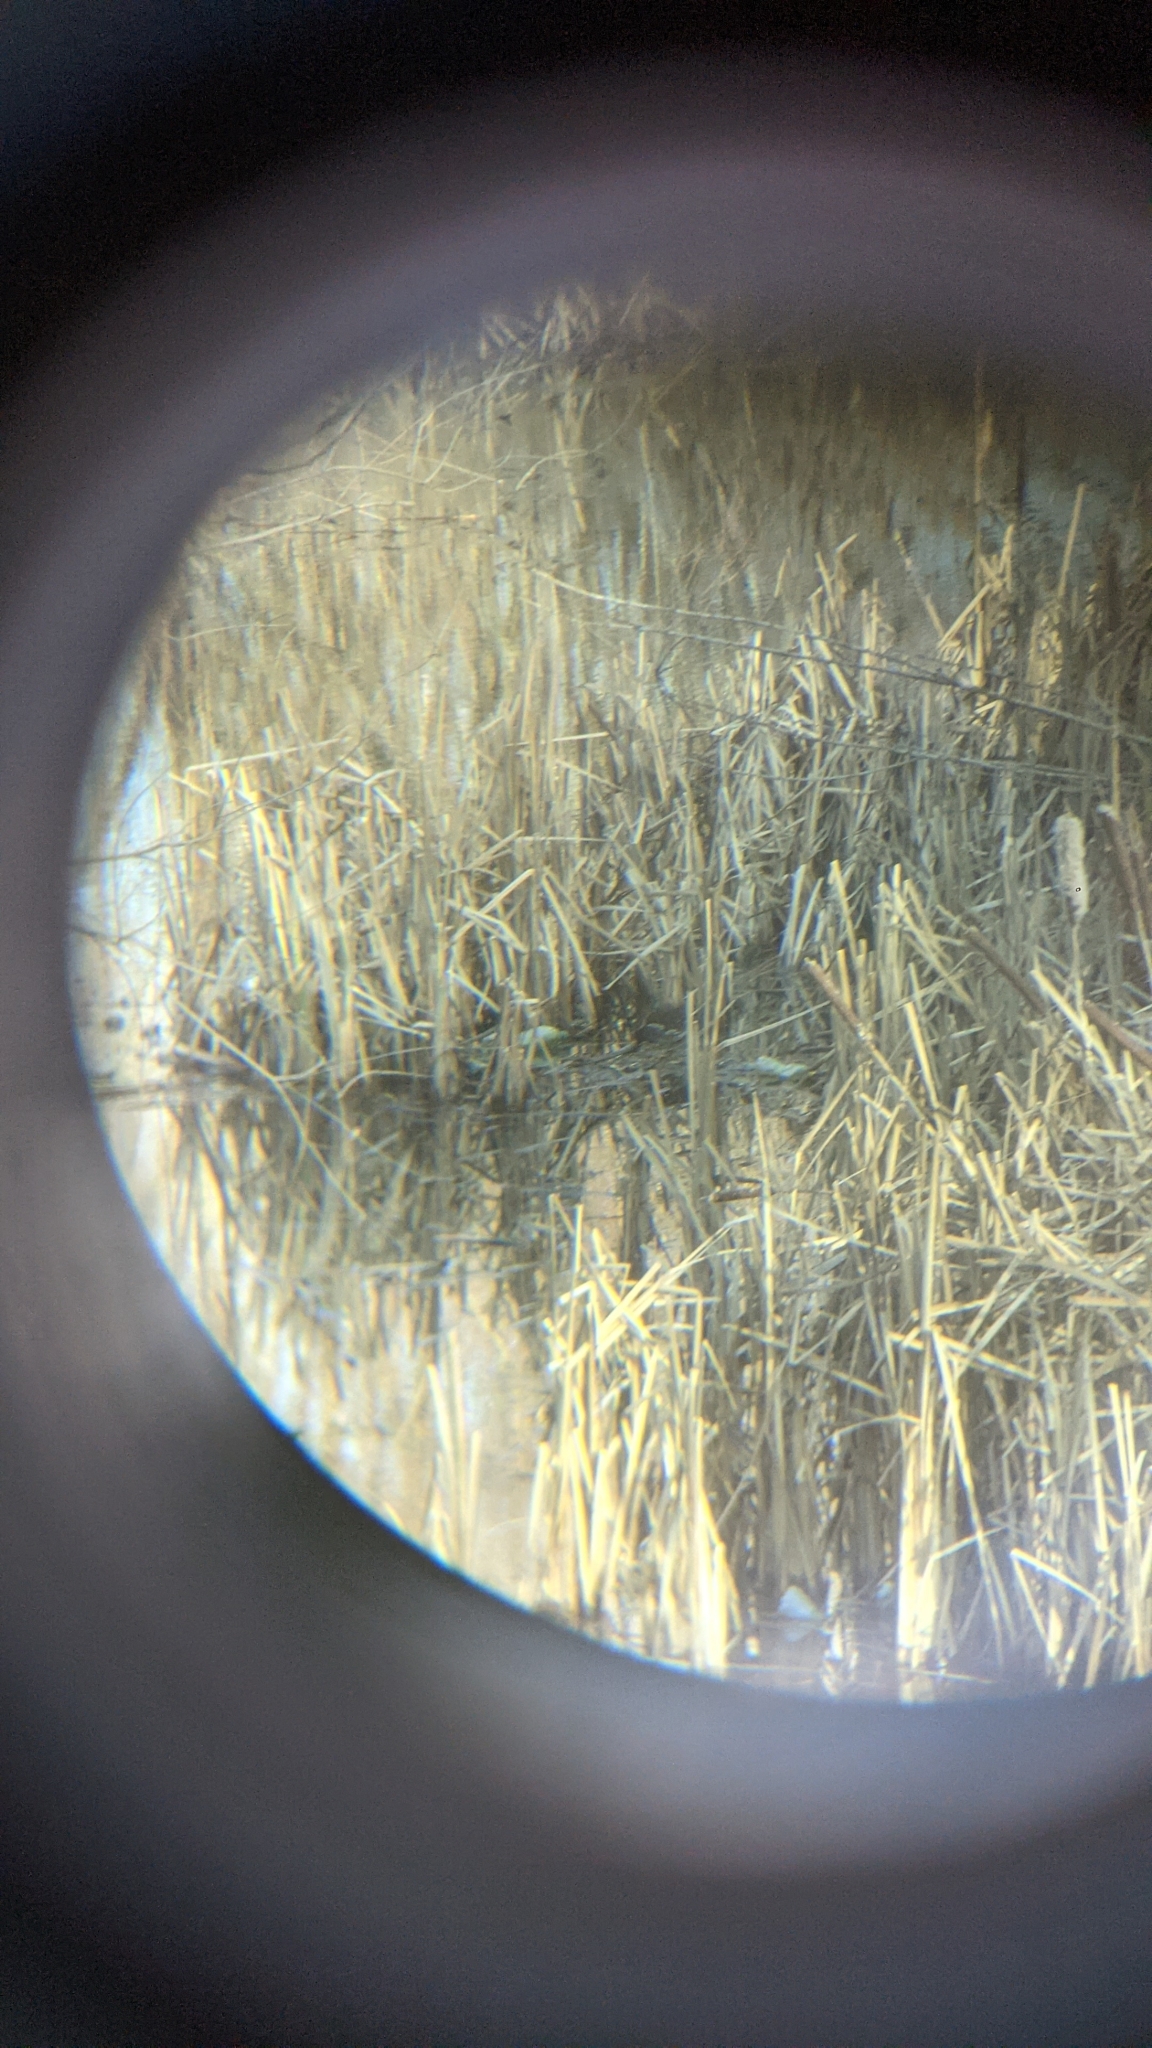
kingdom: Animalia
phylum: Chordata
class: Aves
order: Gruiformes
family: Rallidae
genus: Gallinula
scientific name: Gallinula chloropus
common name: Common moorhen
